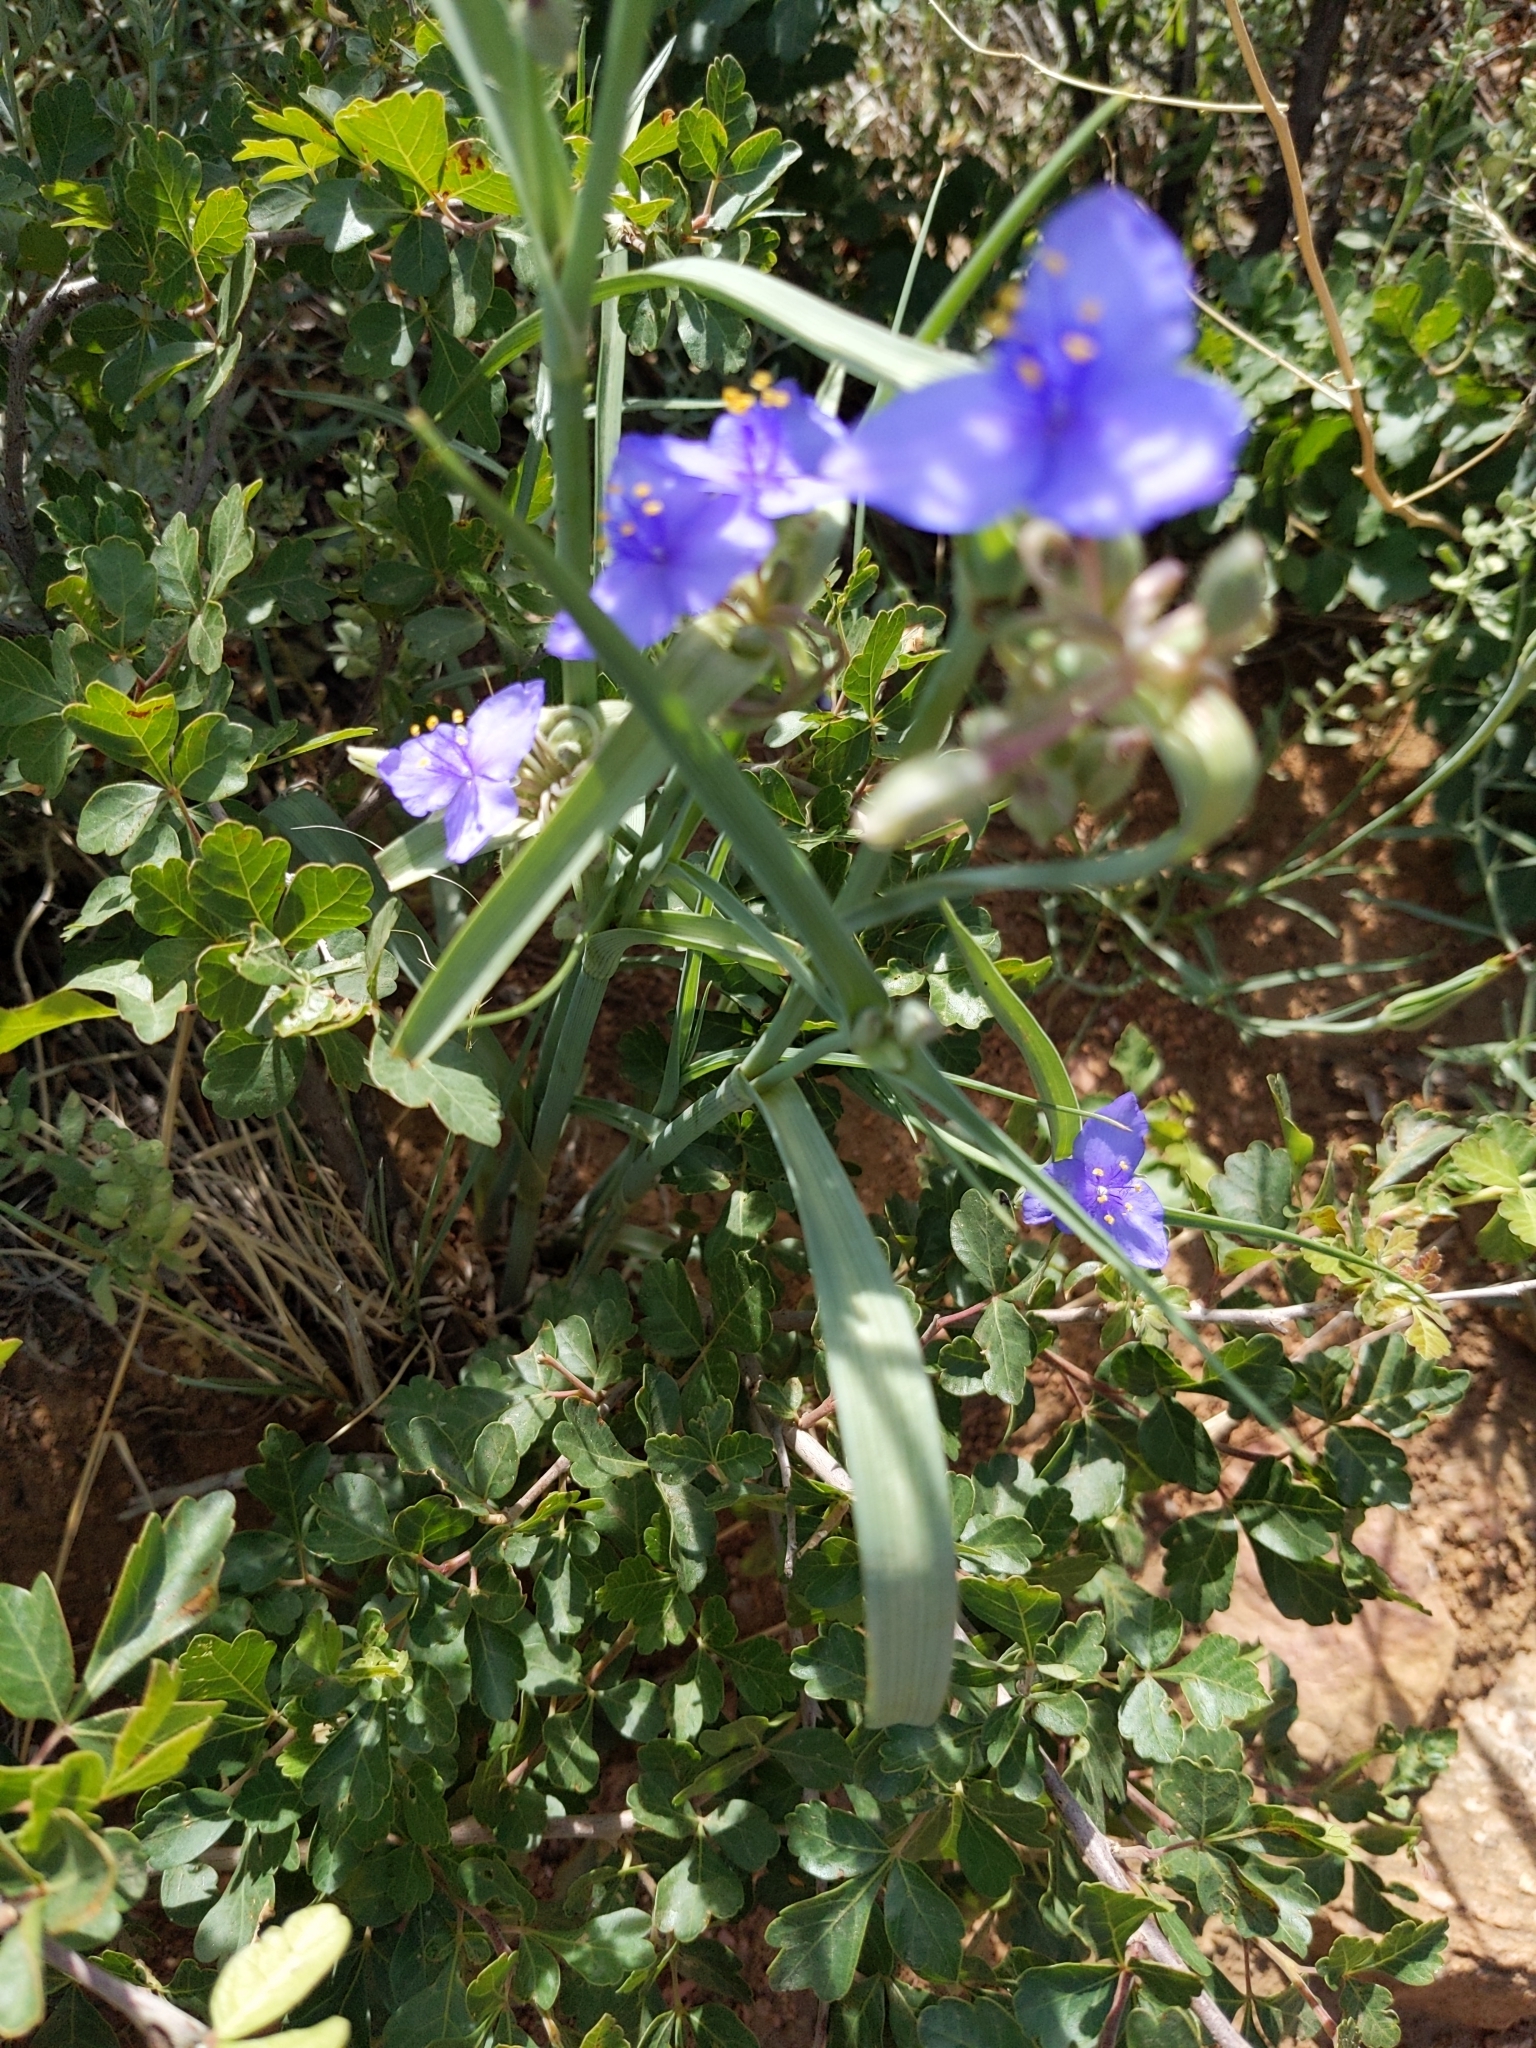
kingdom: Plantae
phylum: Tracheophyta
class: Liliopsida
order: Commelinales
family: Commelinaceae
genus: Tradescantia
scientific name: Tradescantia occidentalis
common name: Prairie spiderwort
